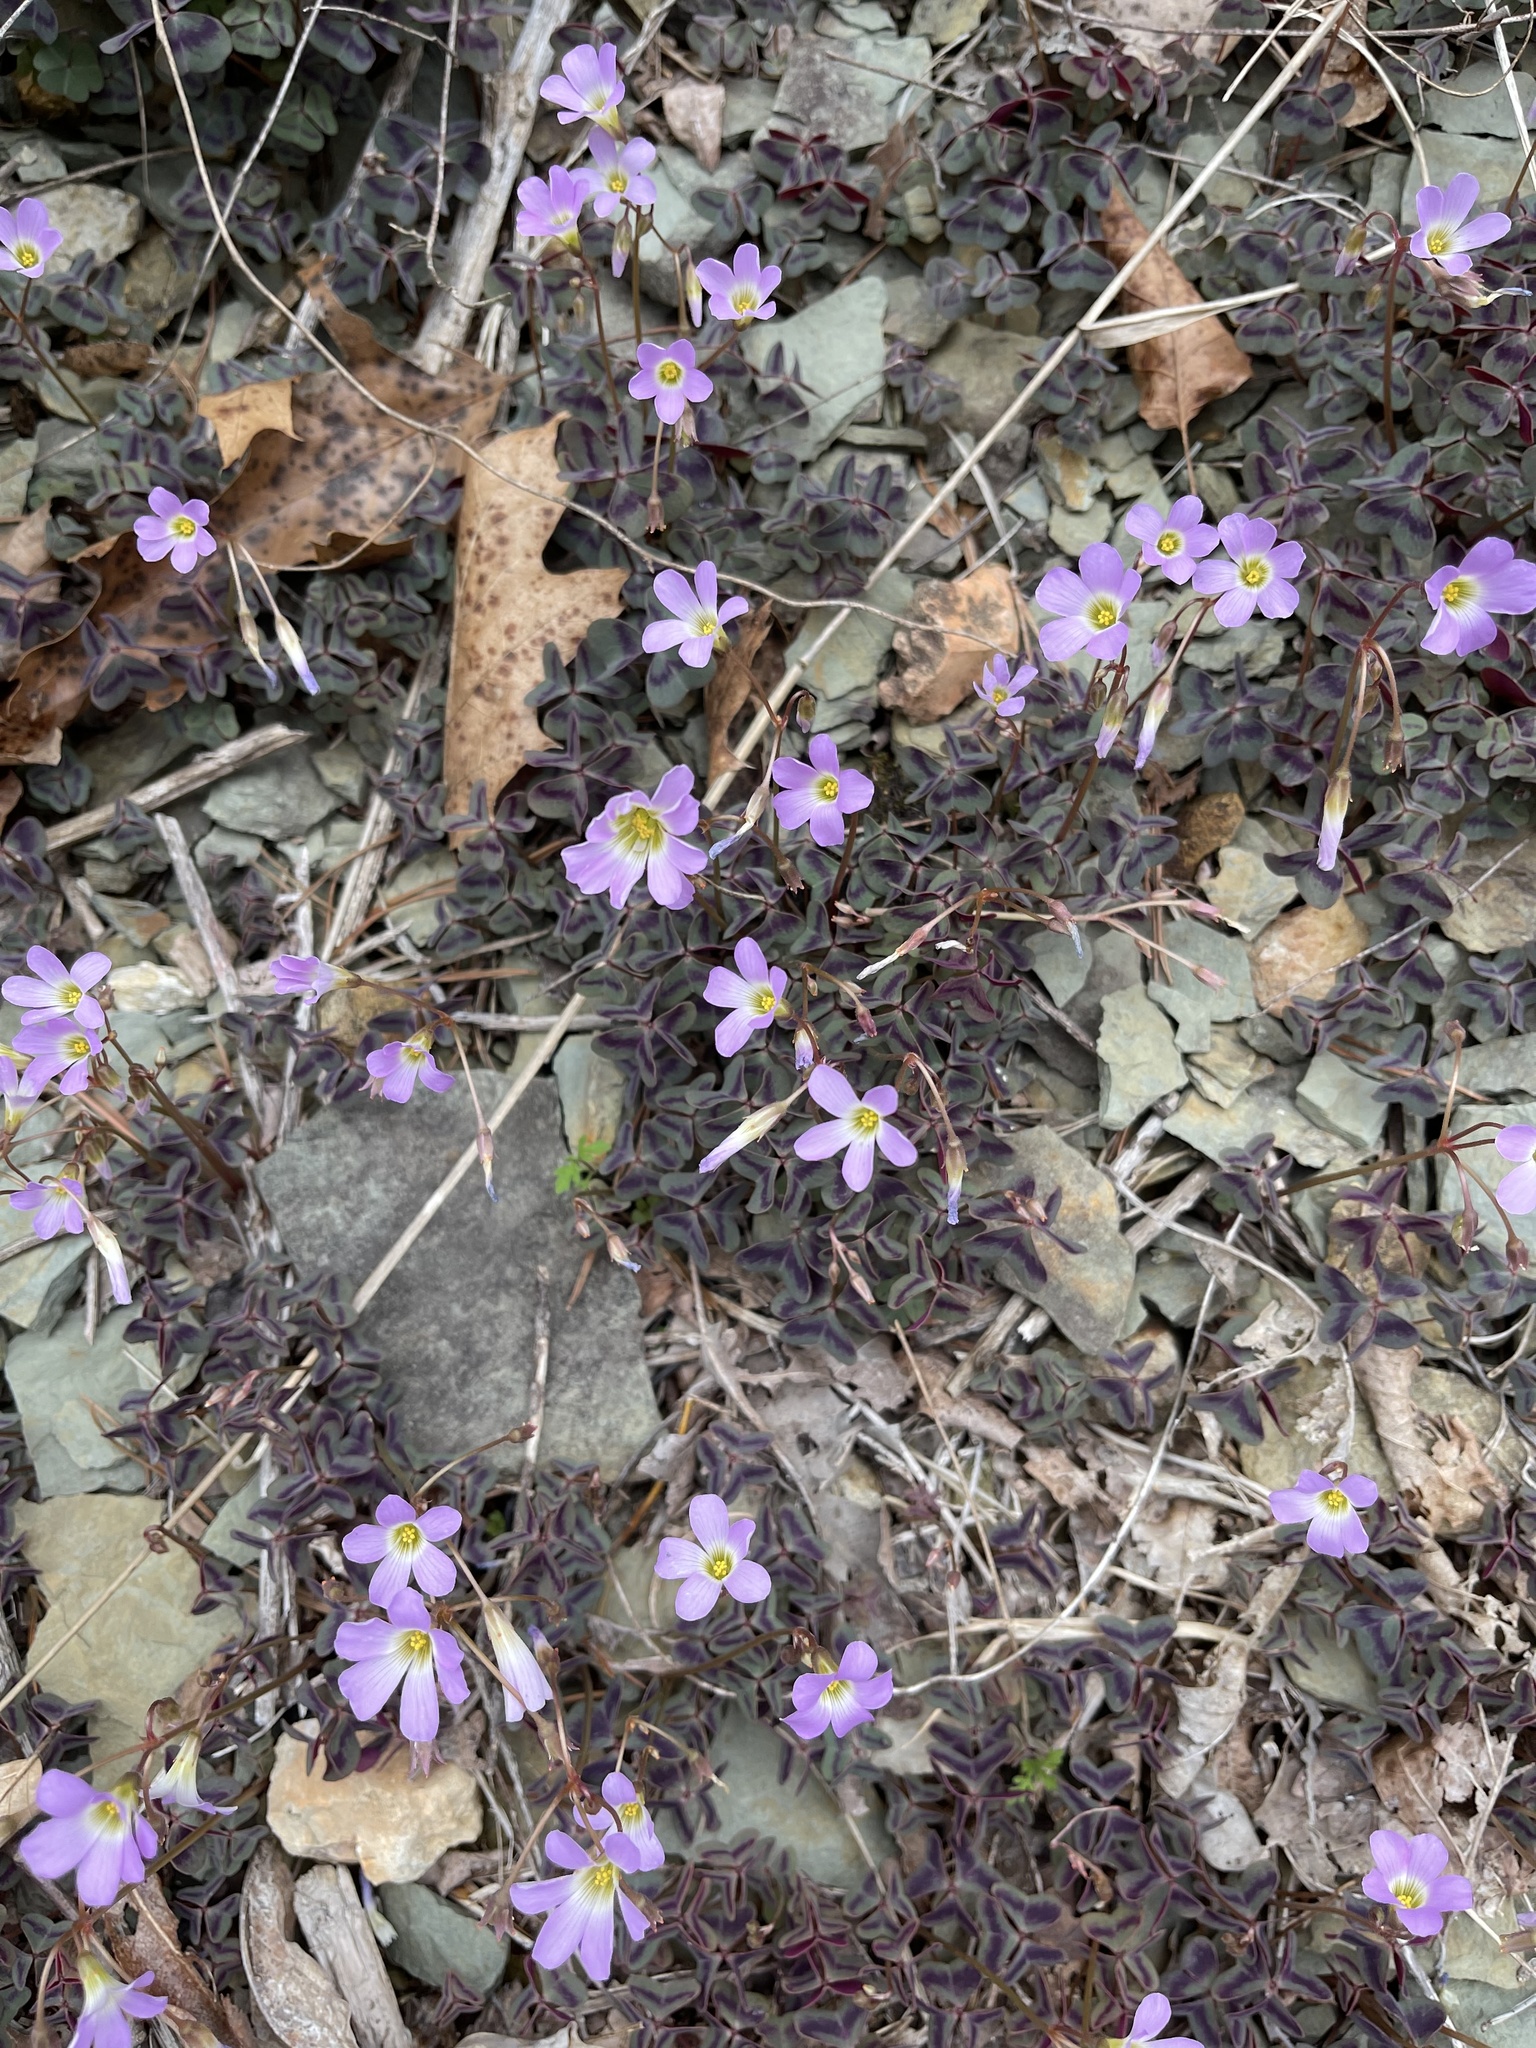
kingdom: Plantae
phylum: Tracheophyta
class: Magnoliopsida
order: Oxalidales
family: Oxalidaceae
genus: Oxalis
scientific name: Oxalis violacea
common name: Violet wood-sorrel
